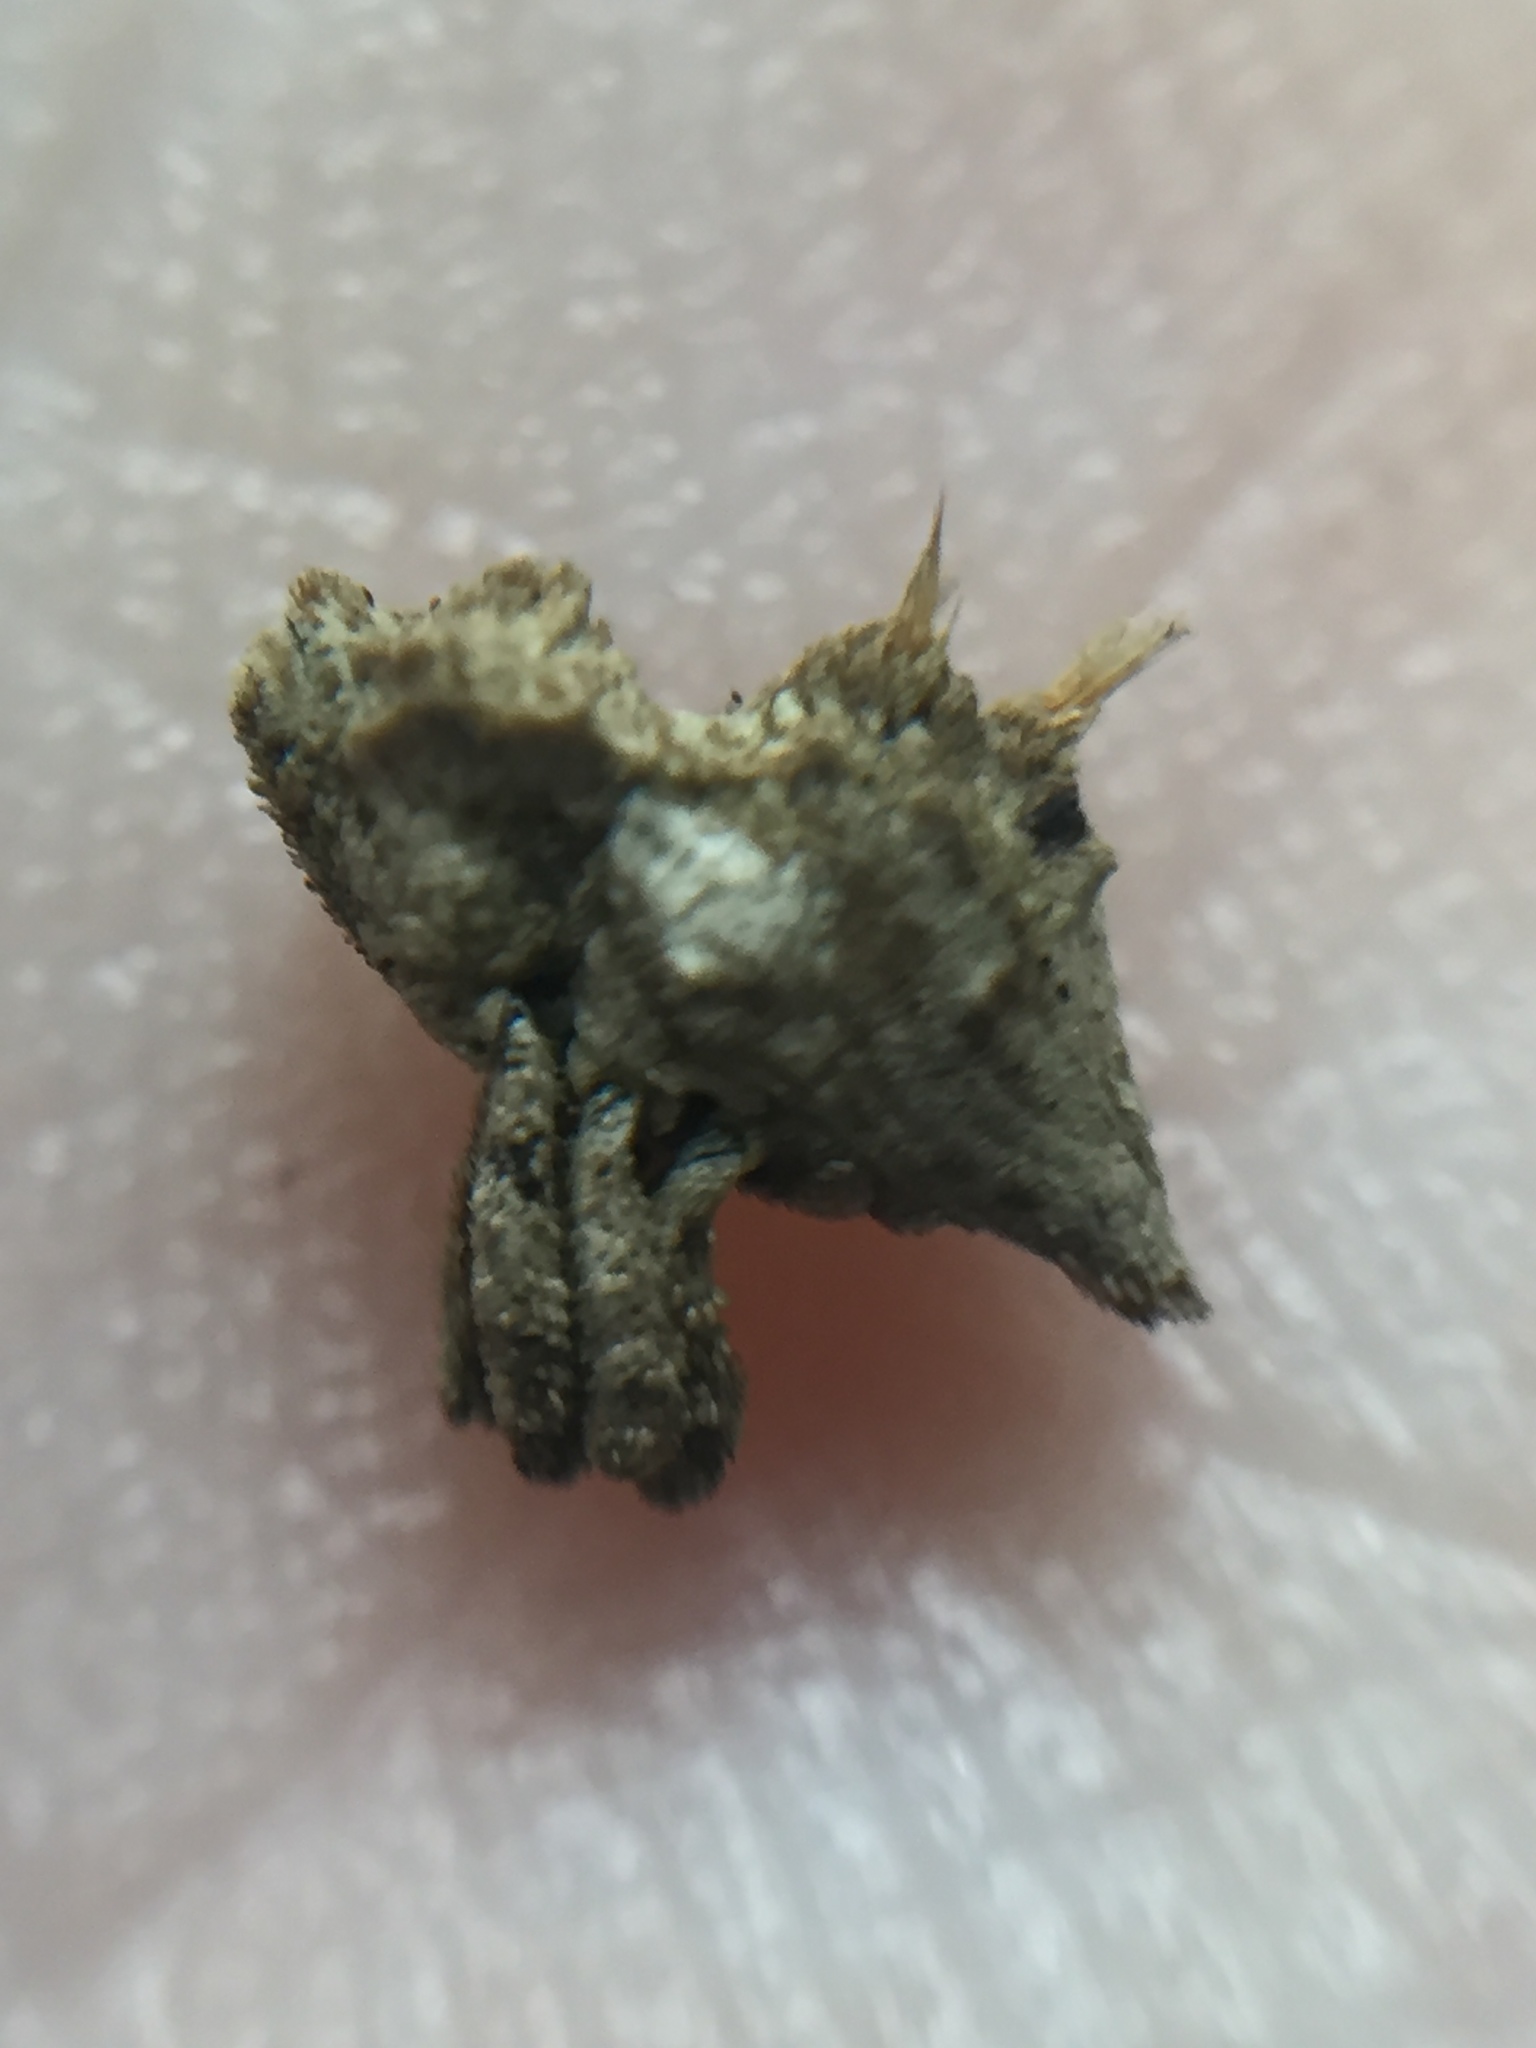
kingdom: Animalia
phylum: Arthropoda
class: Insecta
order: Coleoptera
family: Curculionidae
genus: Indecentia
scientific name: Indecentia nubila
